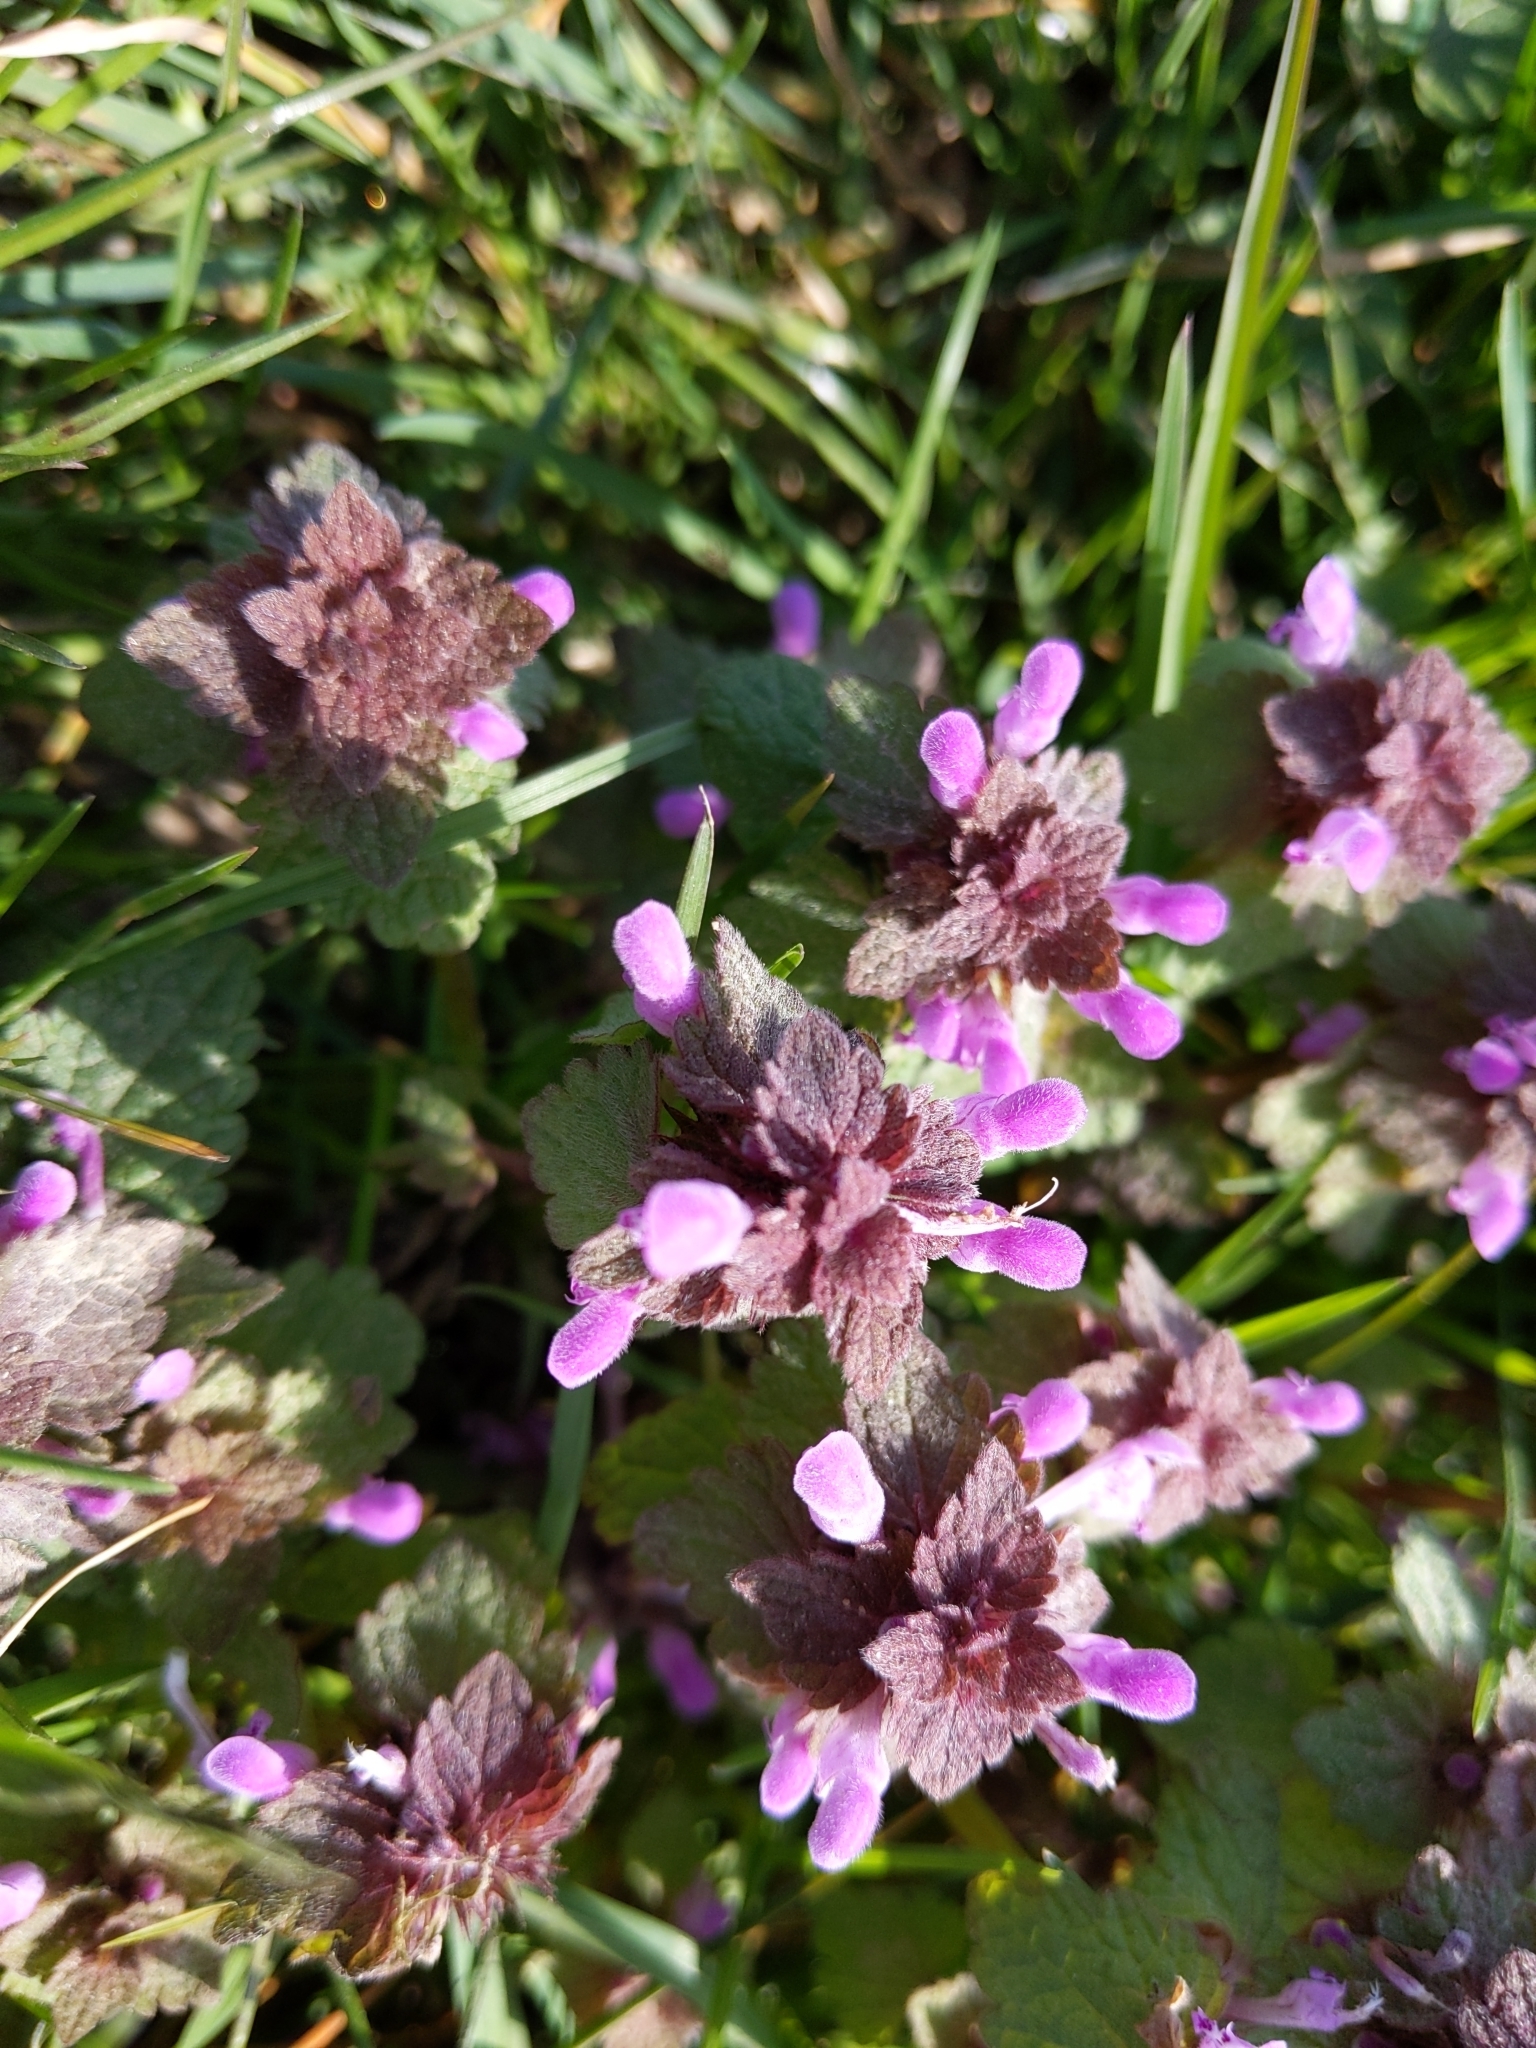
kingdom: Plantae
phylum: Tracheophyta
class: Magnoliopsida
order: Lamiales
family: Lamiaceae
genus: Lamium
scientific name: Lamium purpureum
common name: Red dead-nettle
